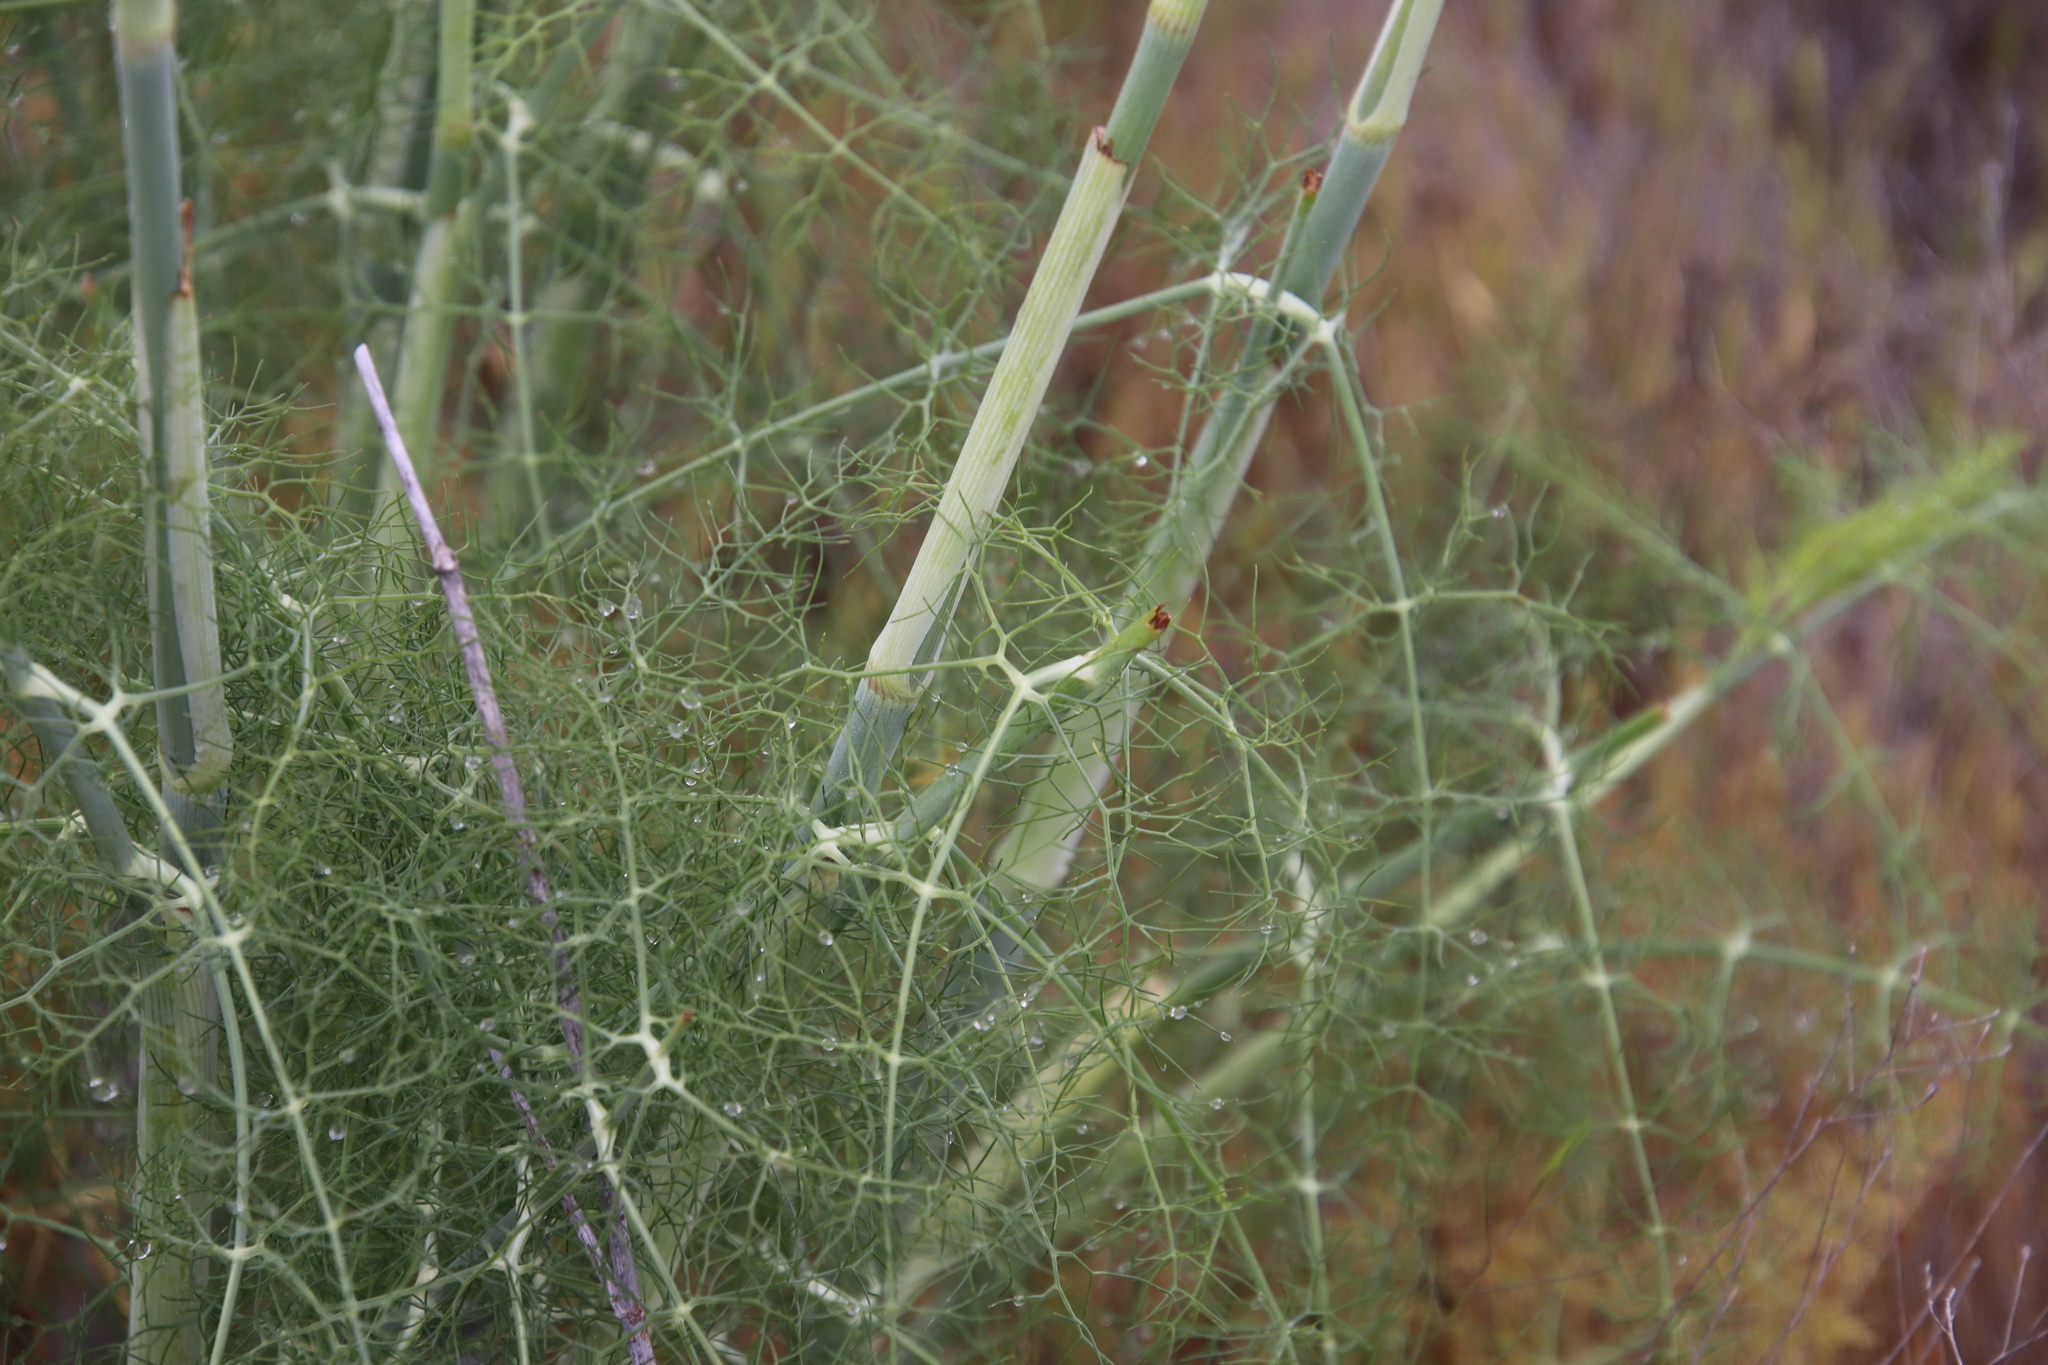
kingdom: Plantae
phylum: Tracheophyta
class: Magnoliopsida
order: Apiales
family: Apiaceae
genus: Foeniculum
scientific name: Foeniculum vulgare
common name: Fennel
